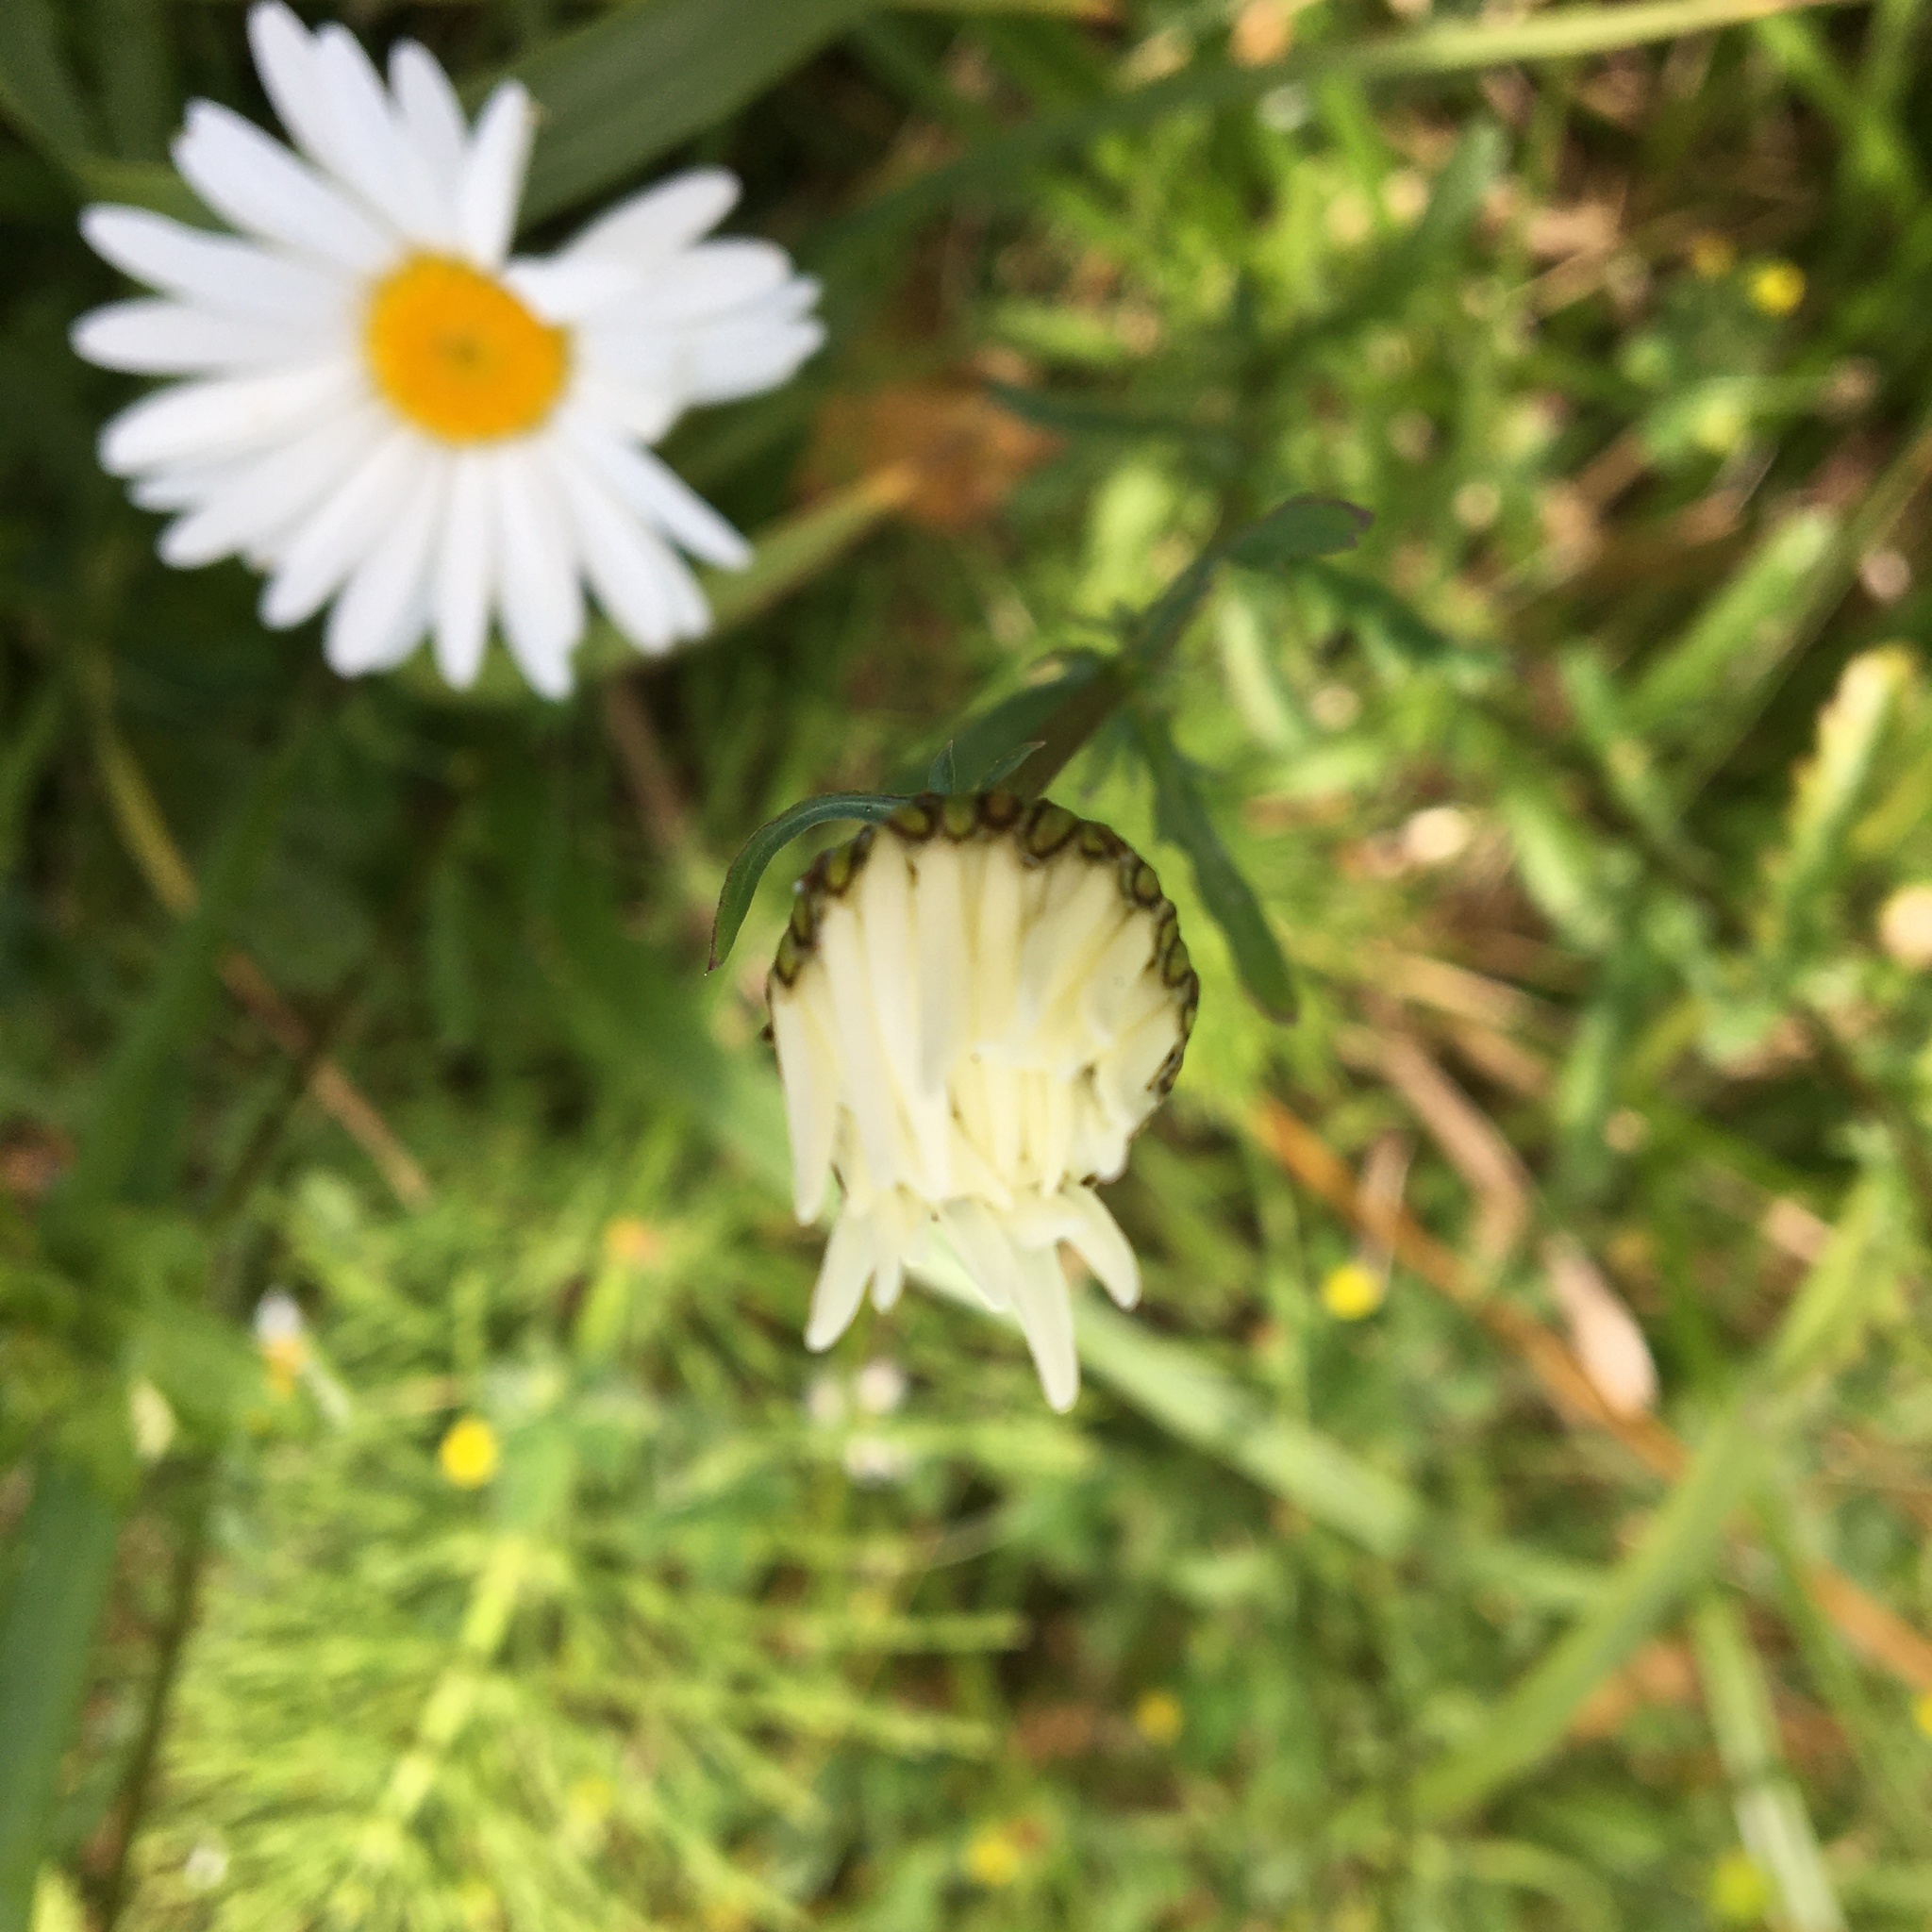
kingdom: Plantae
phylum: Tracheophyta
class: Magnoliopsida
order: Asterales
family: Asteraceae
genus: Leucanthemum
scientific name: Leucanthemum vulgare
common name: Oxeye daisy
